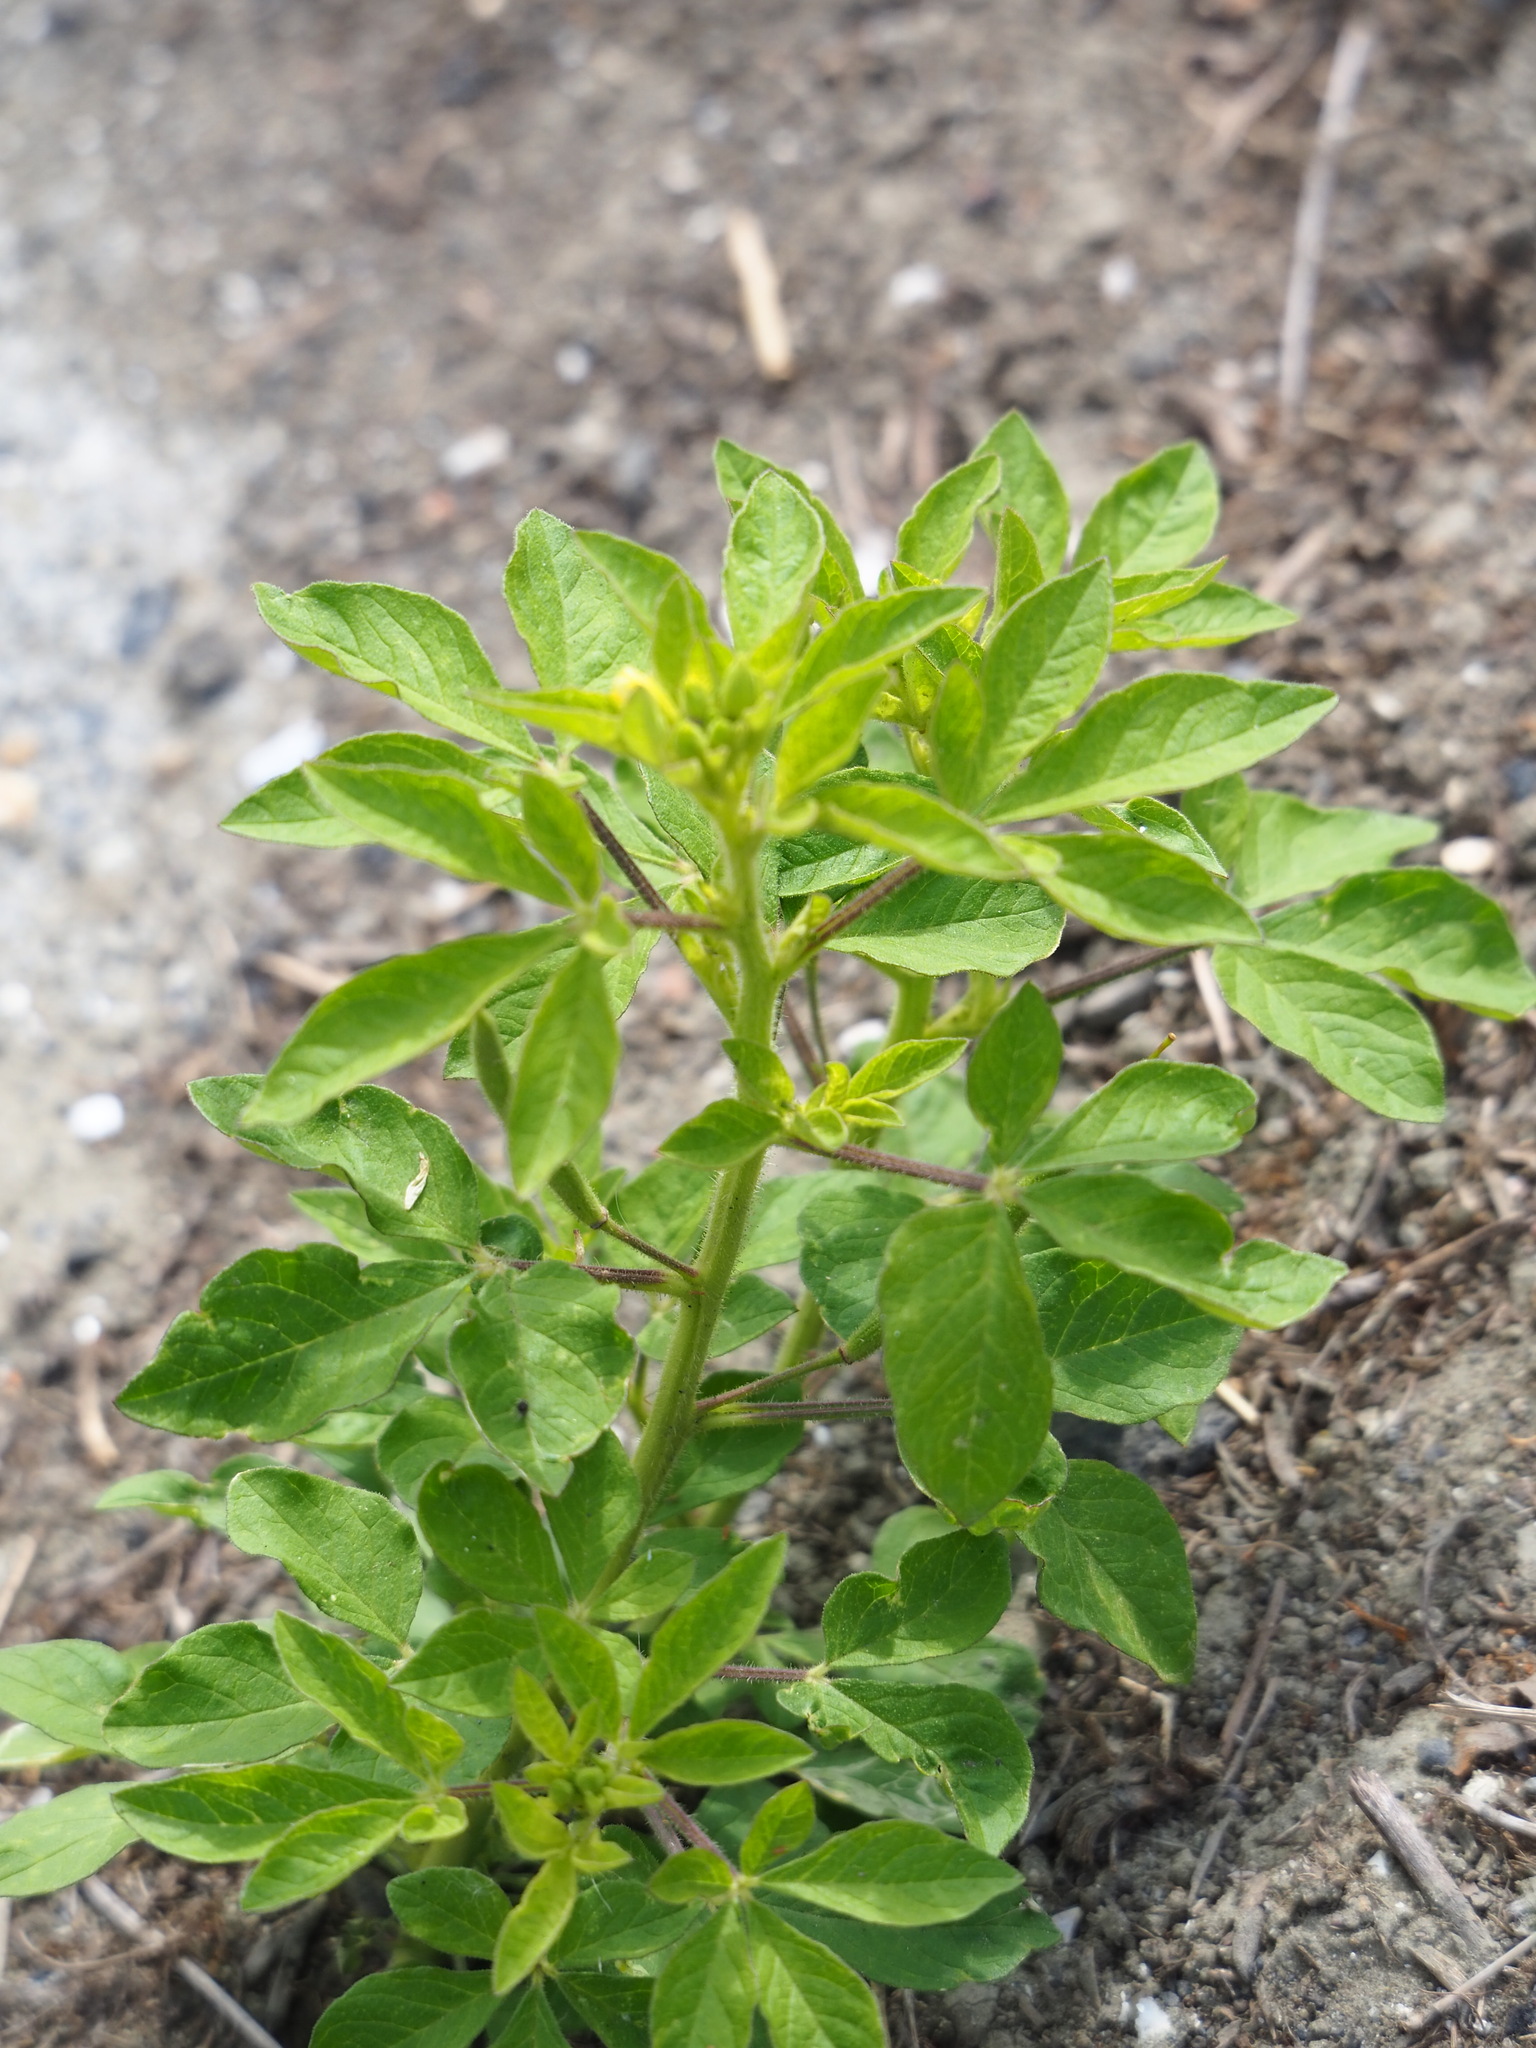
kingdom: Plantae
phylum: Tracheophyta
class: Magnoliopsida
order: Brassicales
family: Cleomaceae
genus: Arivela
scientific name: Arivela viscosa
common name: Asian spiderflower
